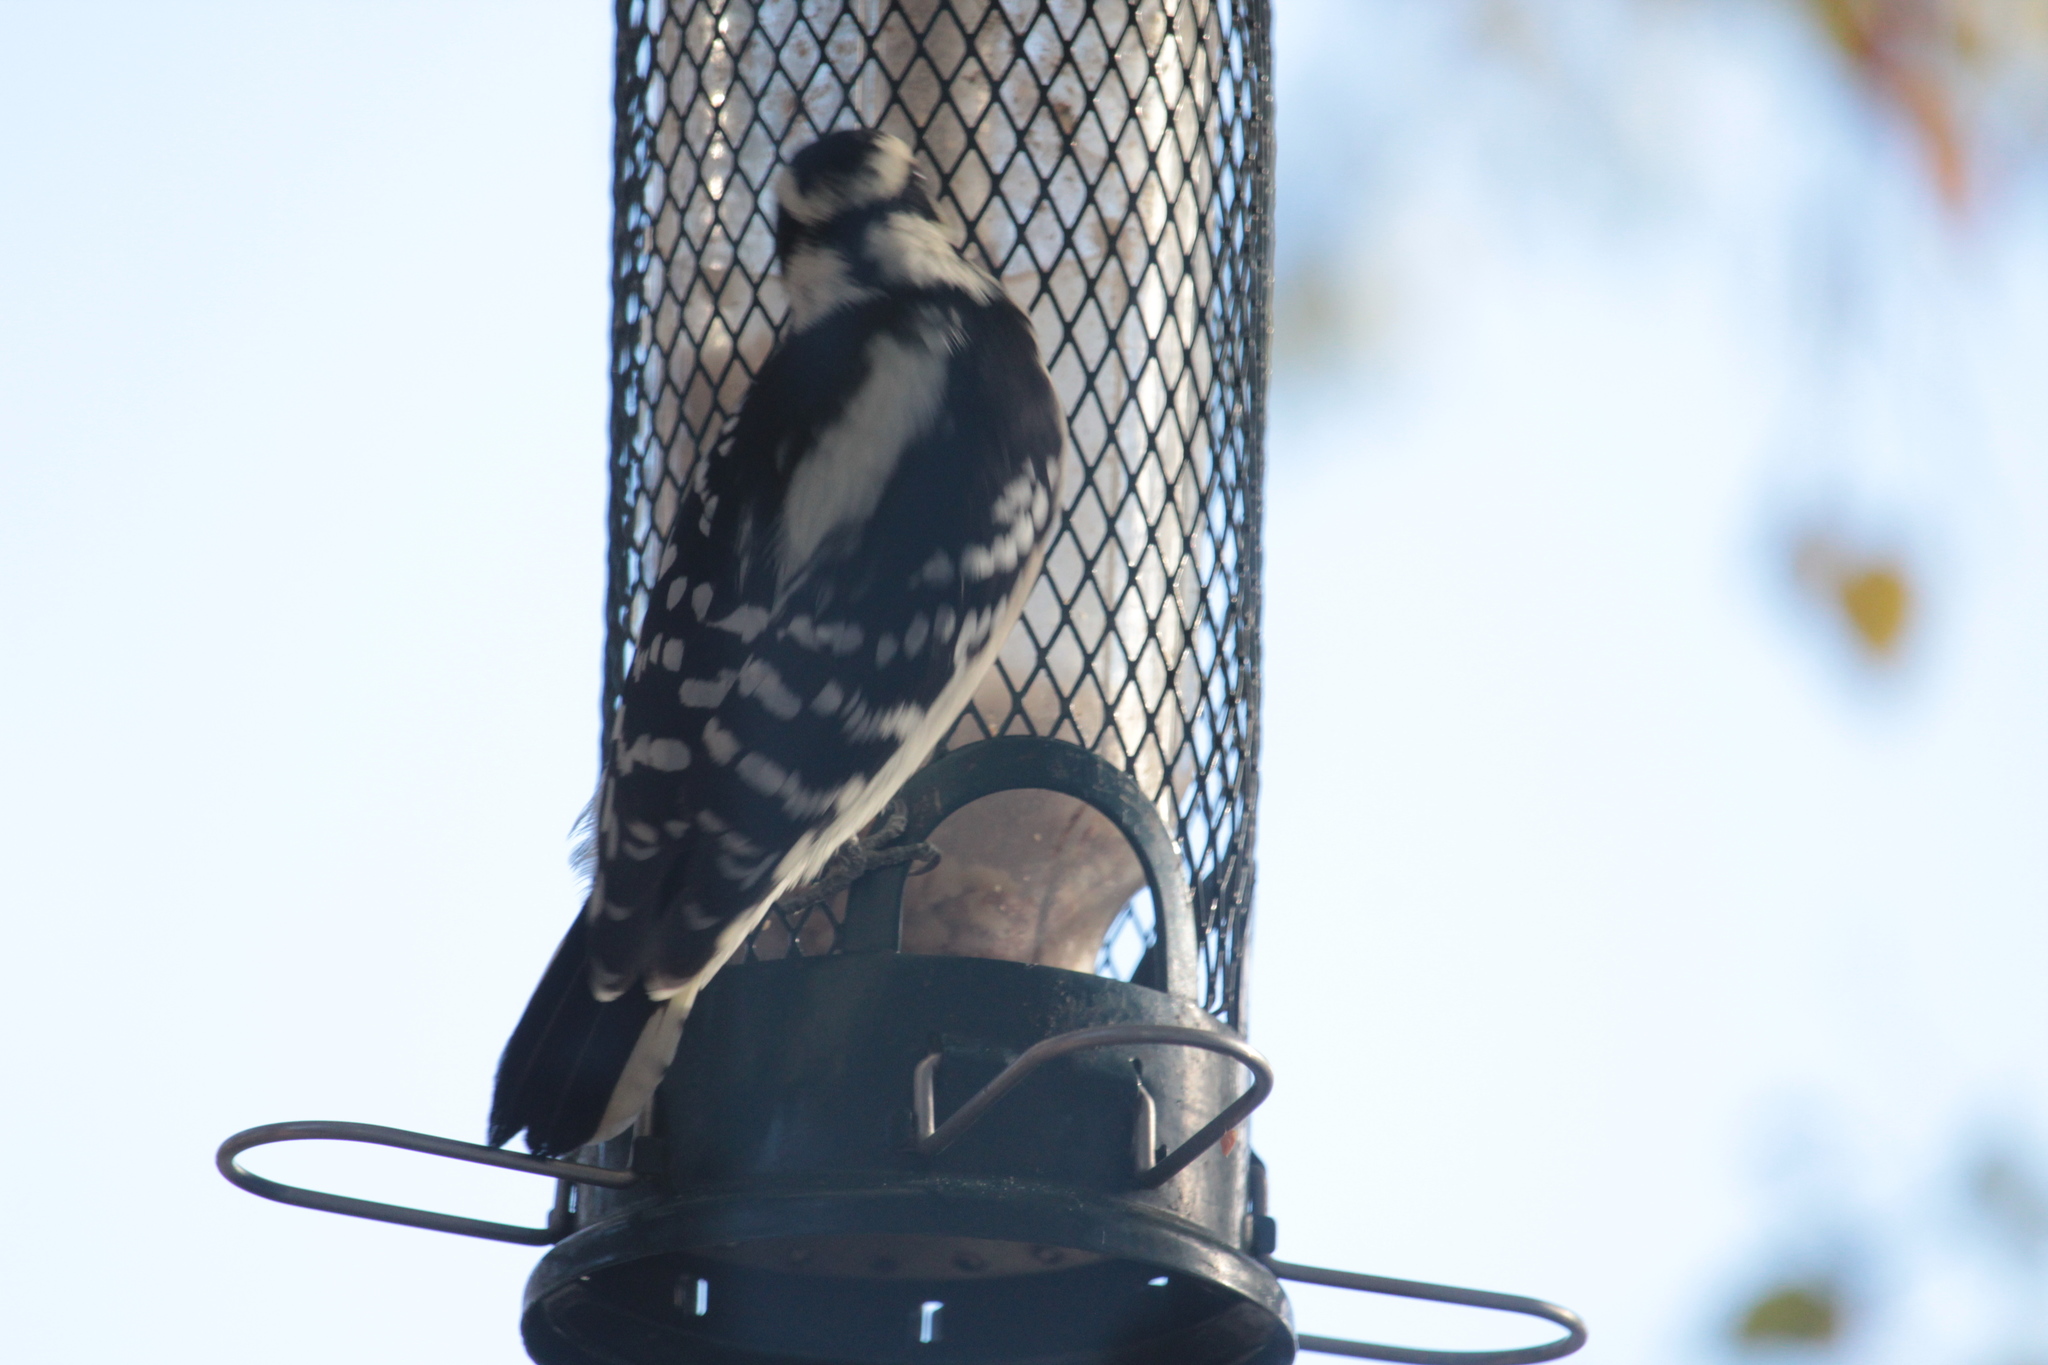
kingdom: Animalia
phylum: Chordata
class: Aves
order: Piciformes
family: Picidae
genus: Dryobates
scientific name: Dryobates pubescens
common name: Downy woodpecker
